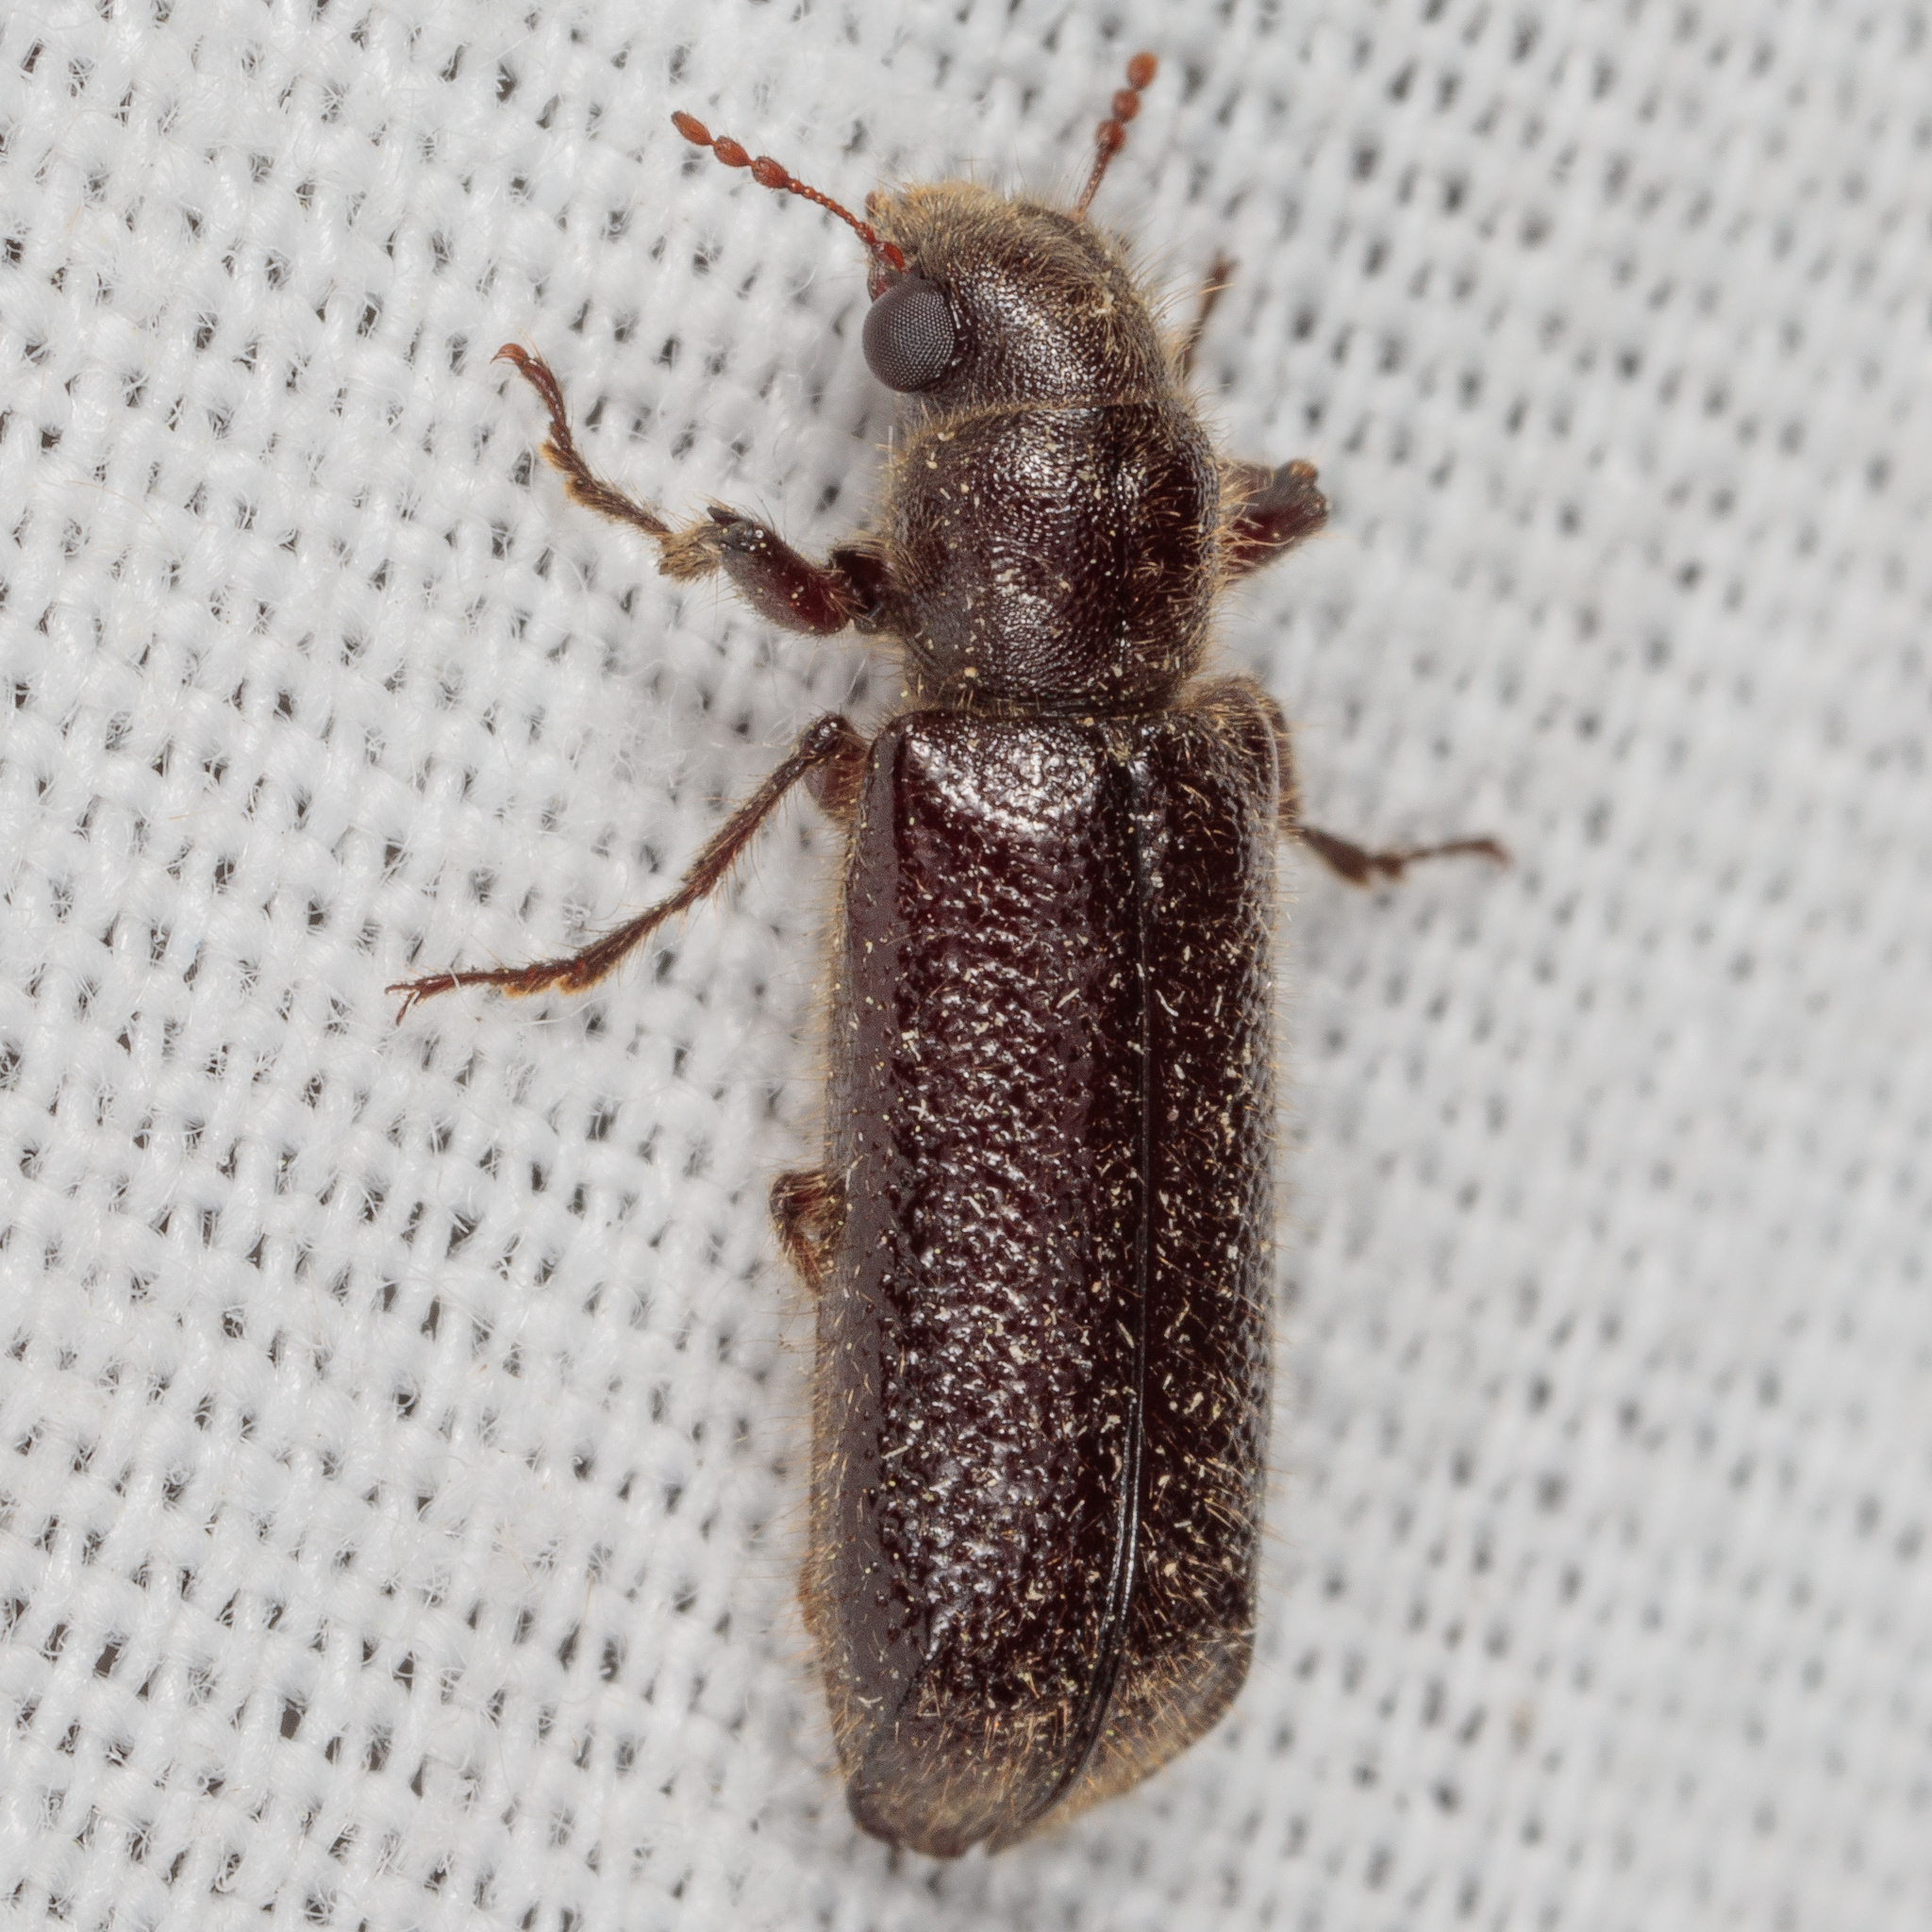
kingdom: Animalia
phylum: Arthropoda
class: Insecta
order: Coleoptera
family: Bostrichidae
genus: Melalgus
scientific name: Melalgus plicatus
